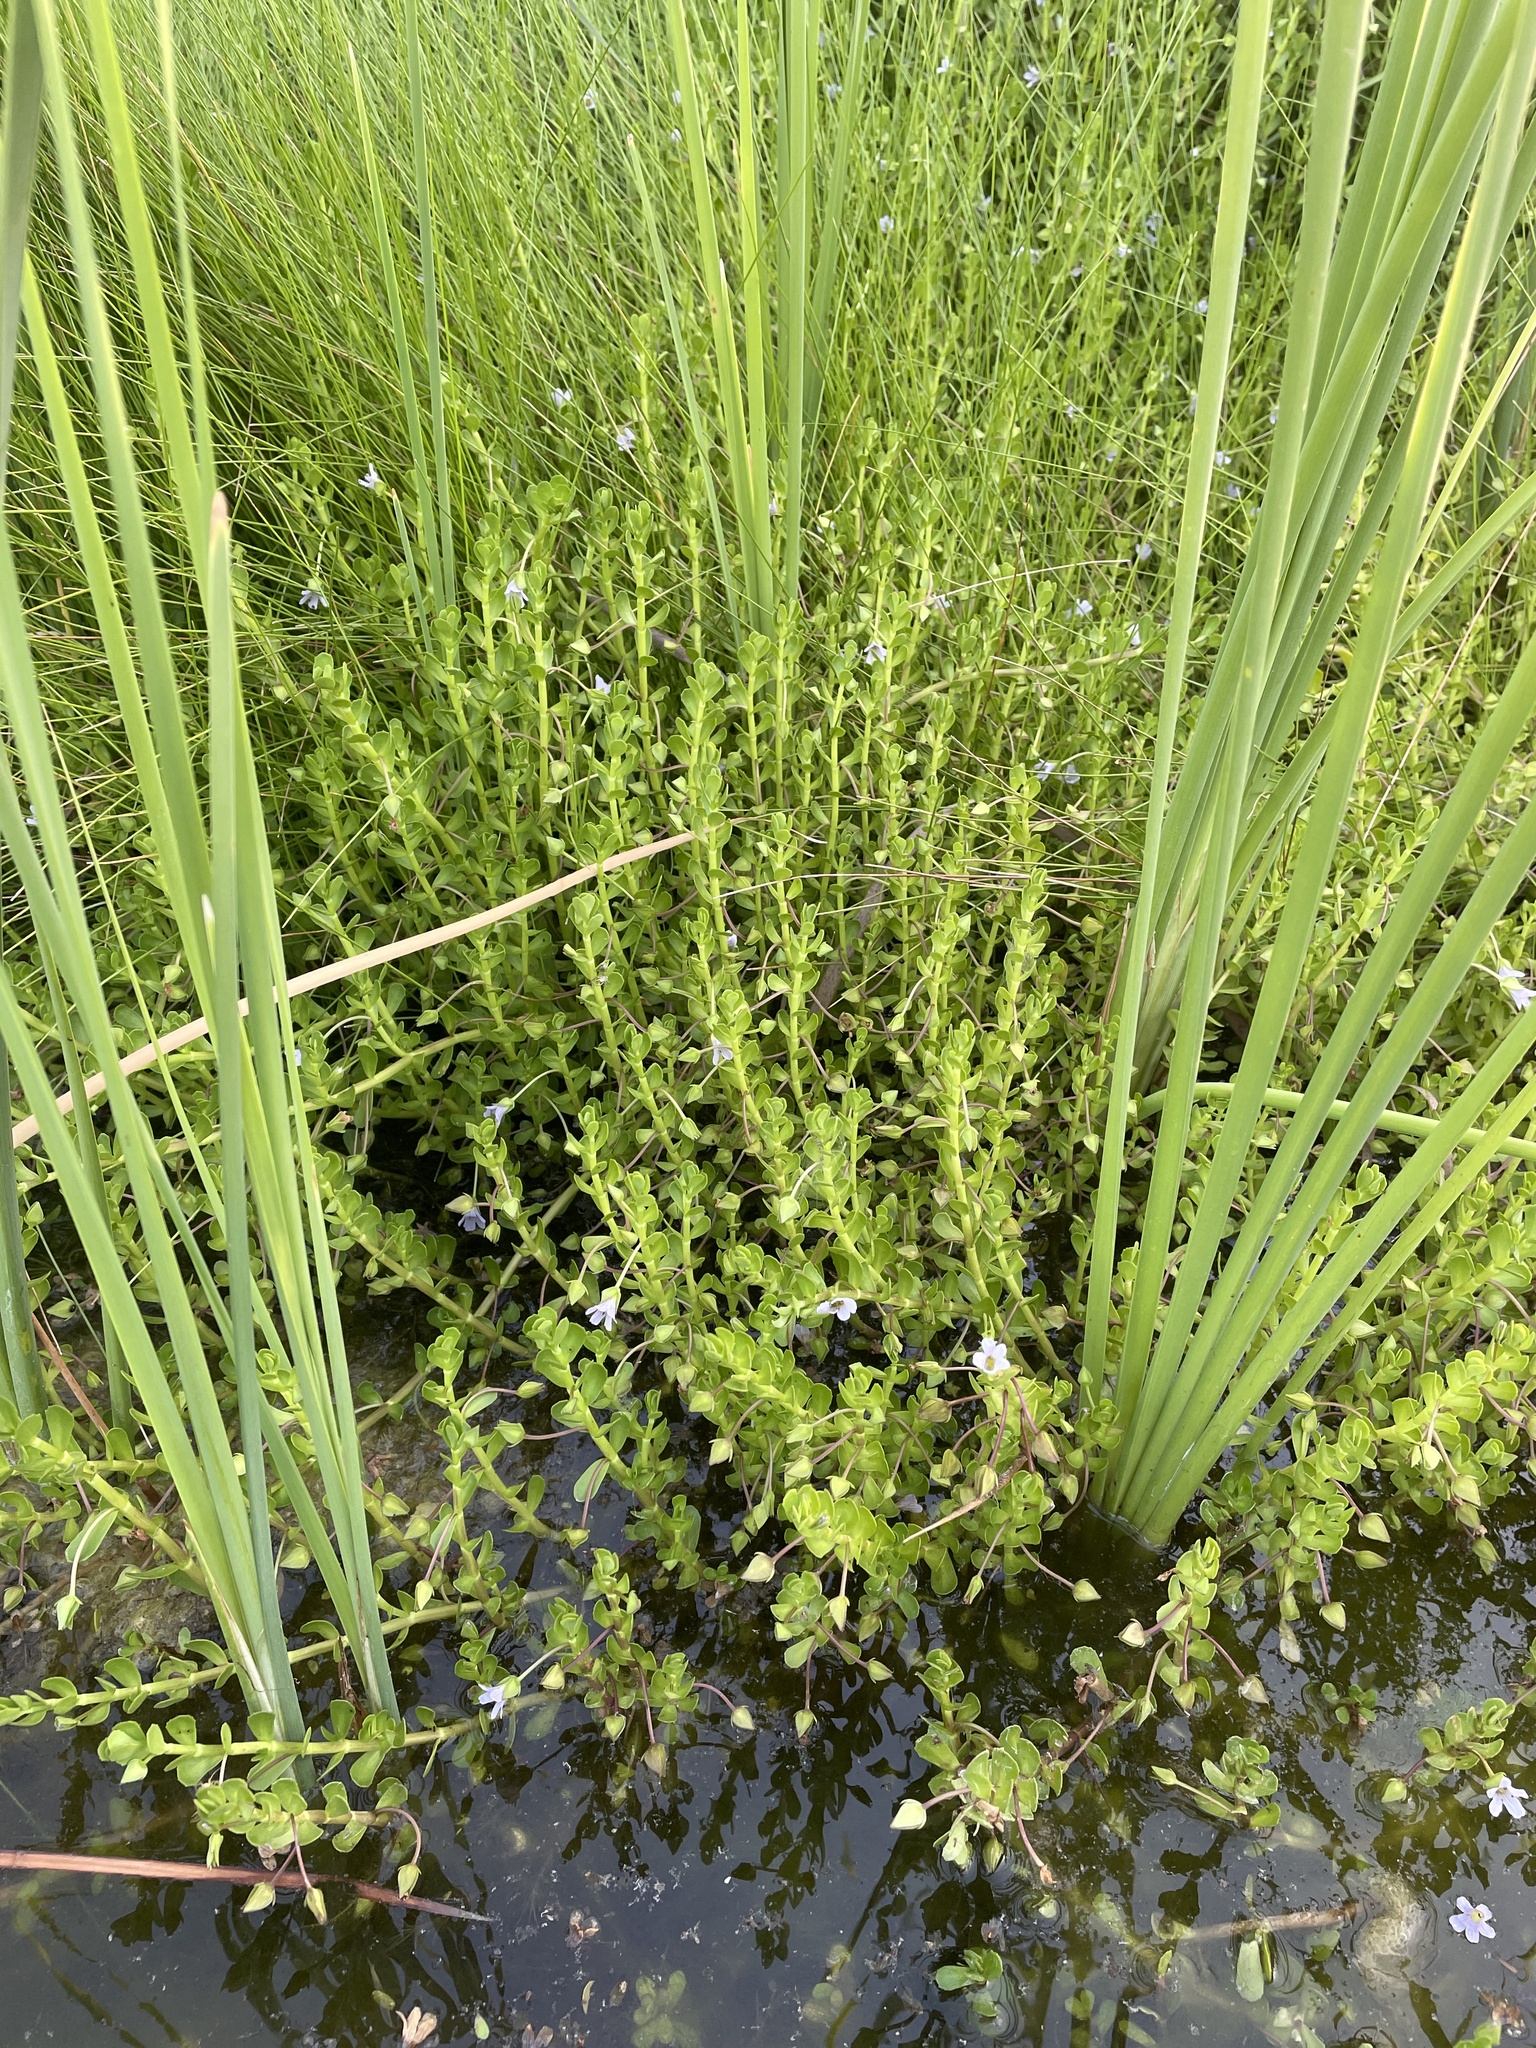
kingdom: Plantae
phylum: Tracheophyta
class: Magnoliopsida
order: Lamiales
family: Plantaginaceae
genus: Bacopa
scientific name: Bacopa monnieri
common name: Indian-pennywort
